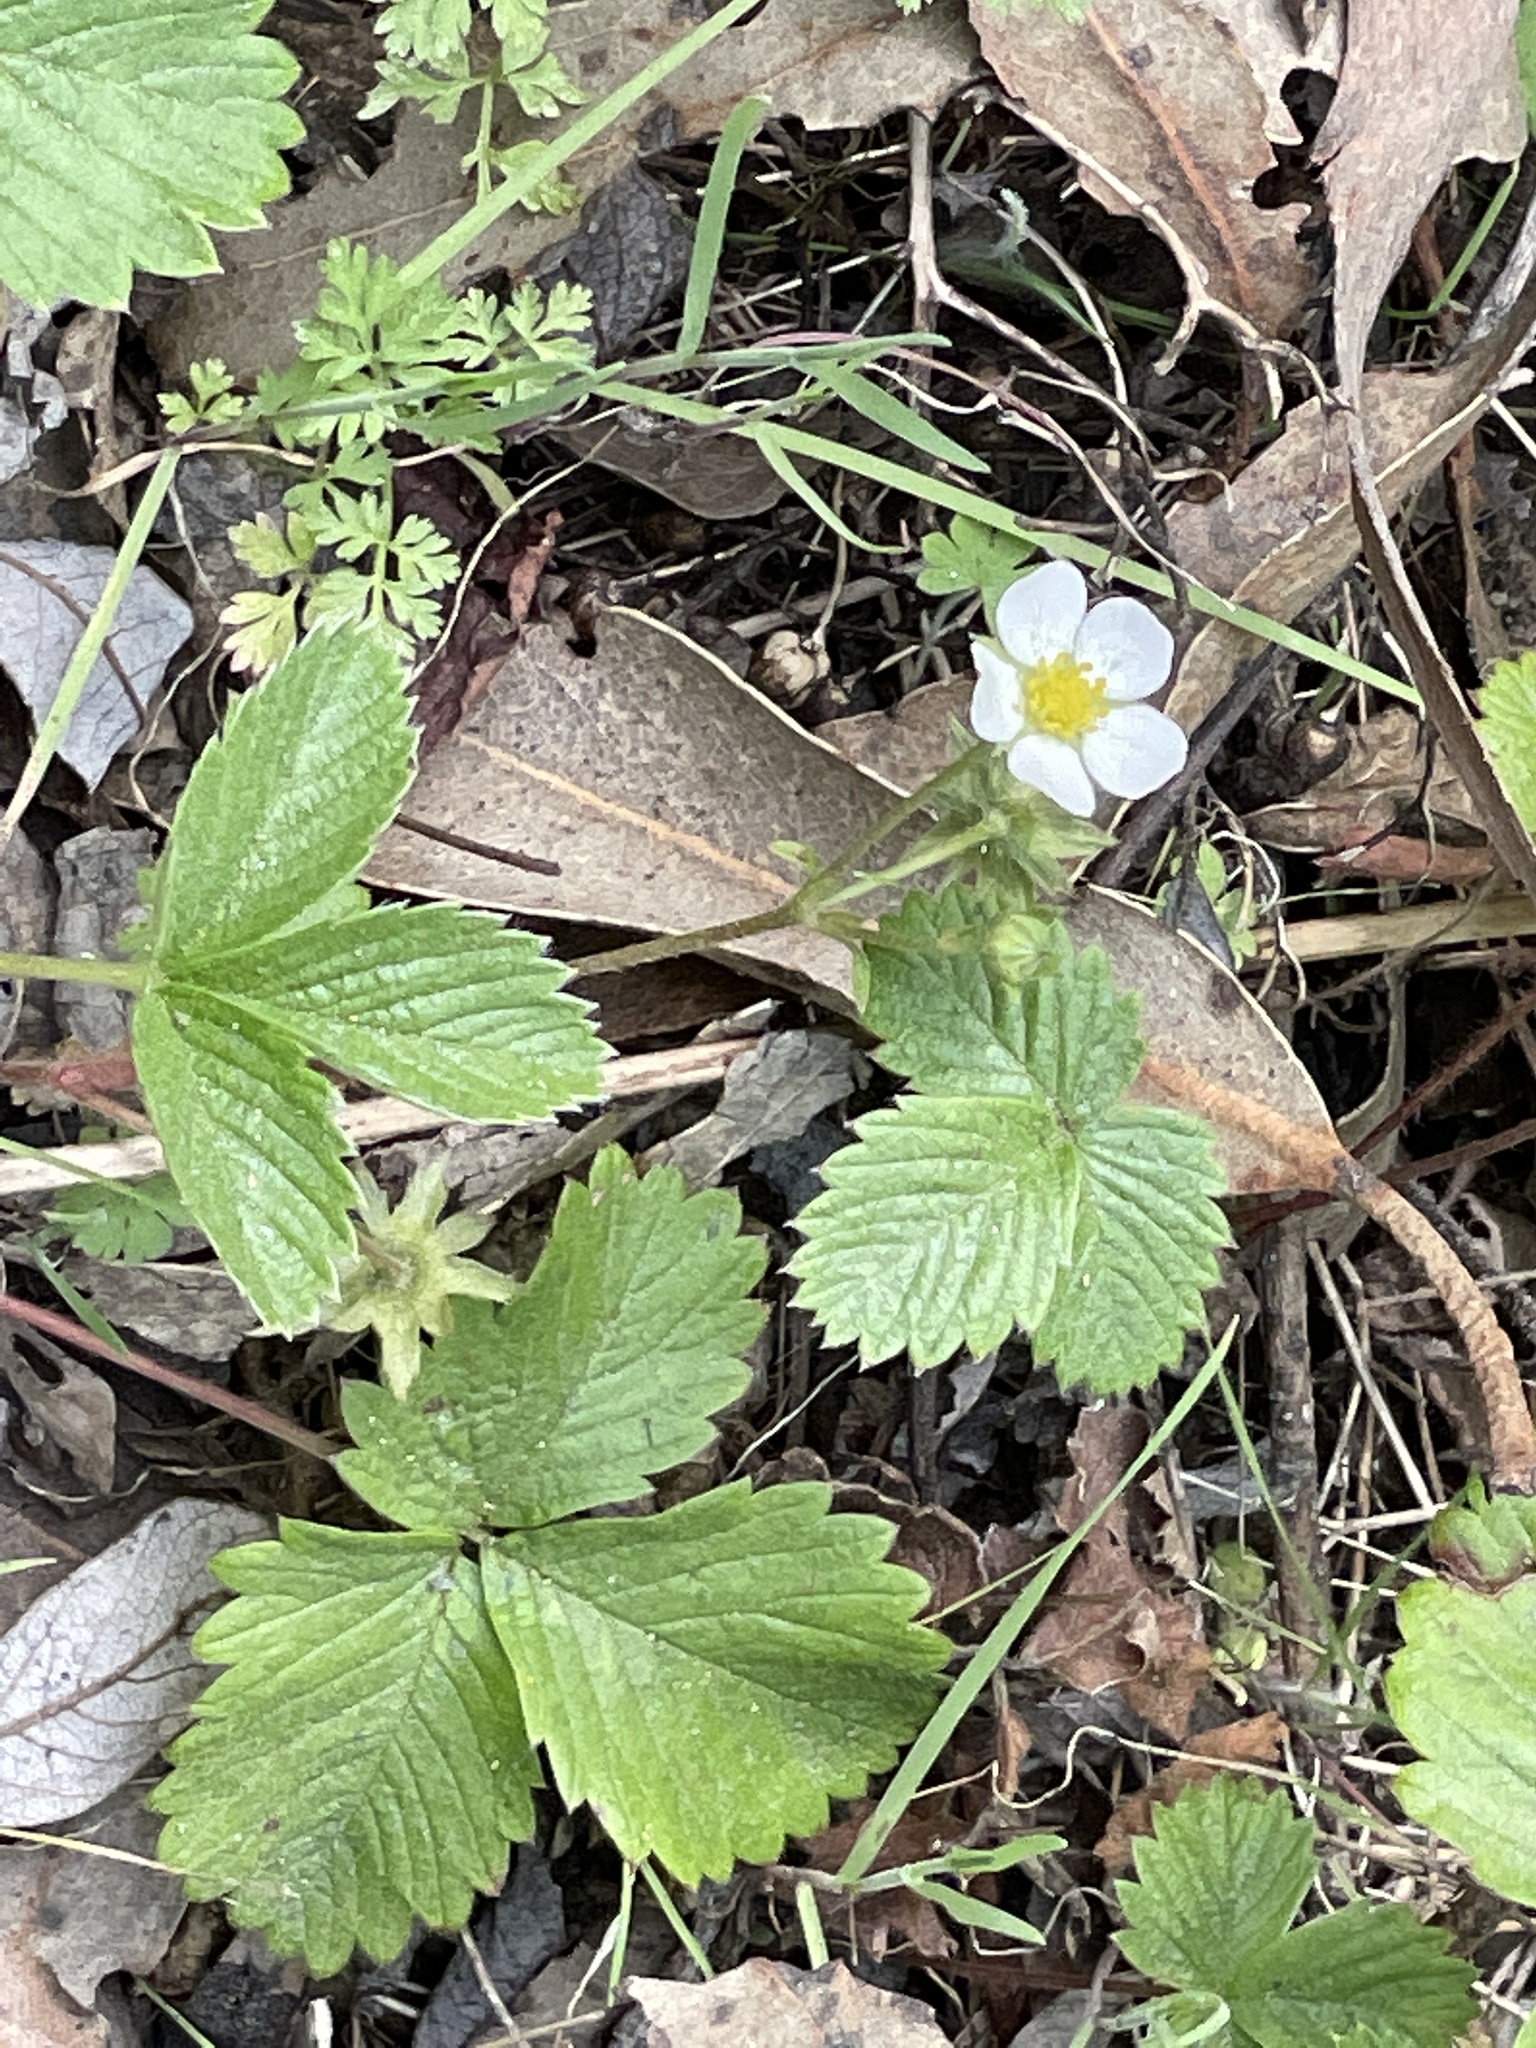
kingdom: Plantae
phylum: Tracheophyta
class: Magnoliopsida
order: Rosales
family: Rosaceae
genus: Fragaria
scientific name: Fragaria vesca
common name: Wild strawberry
